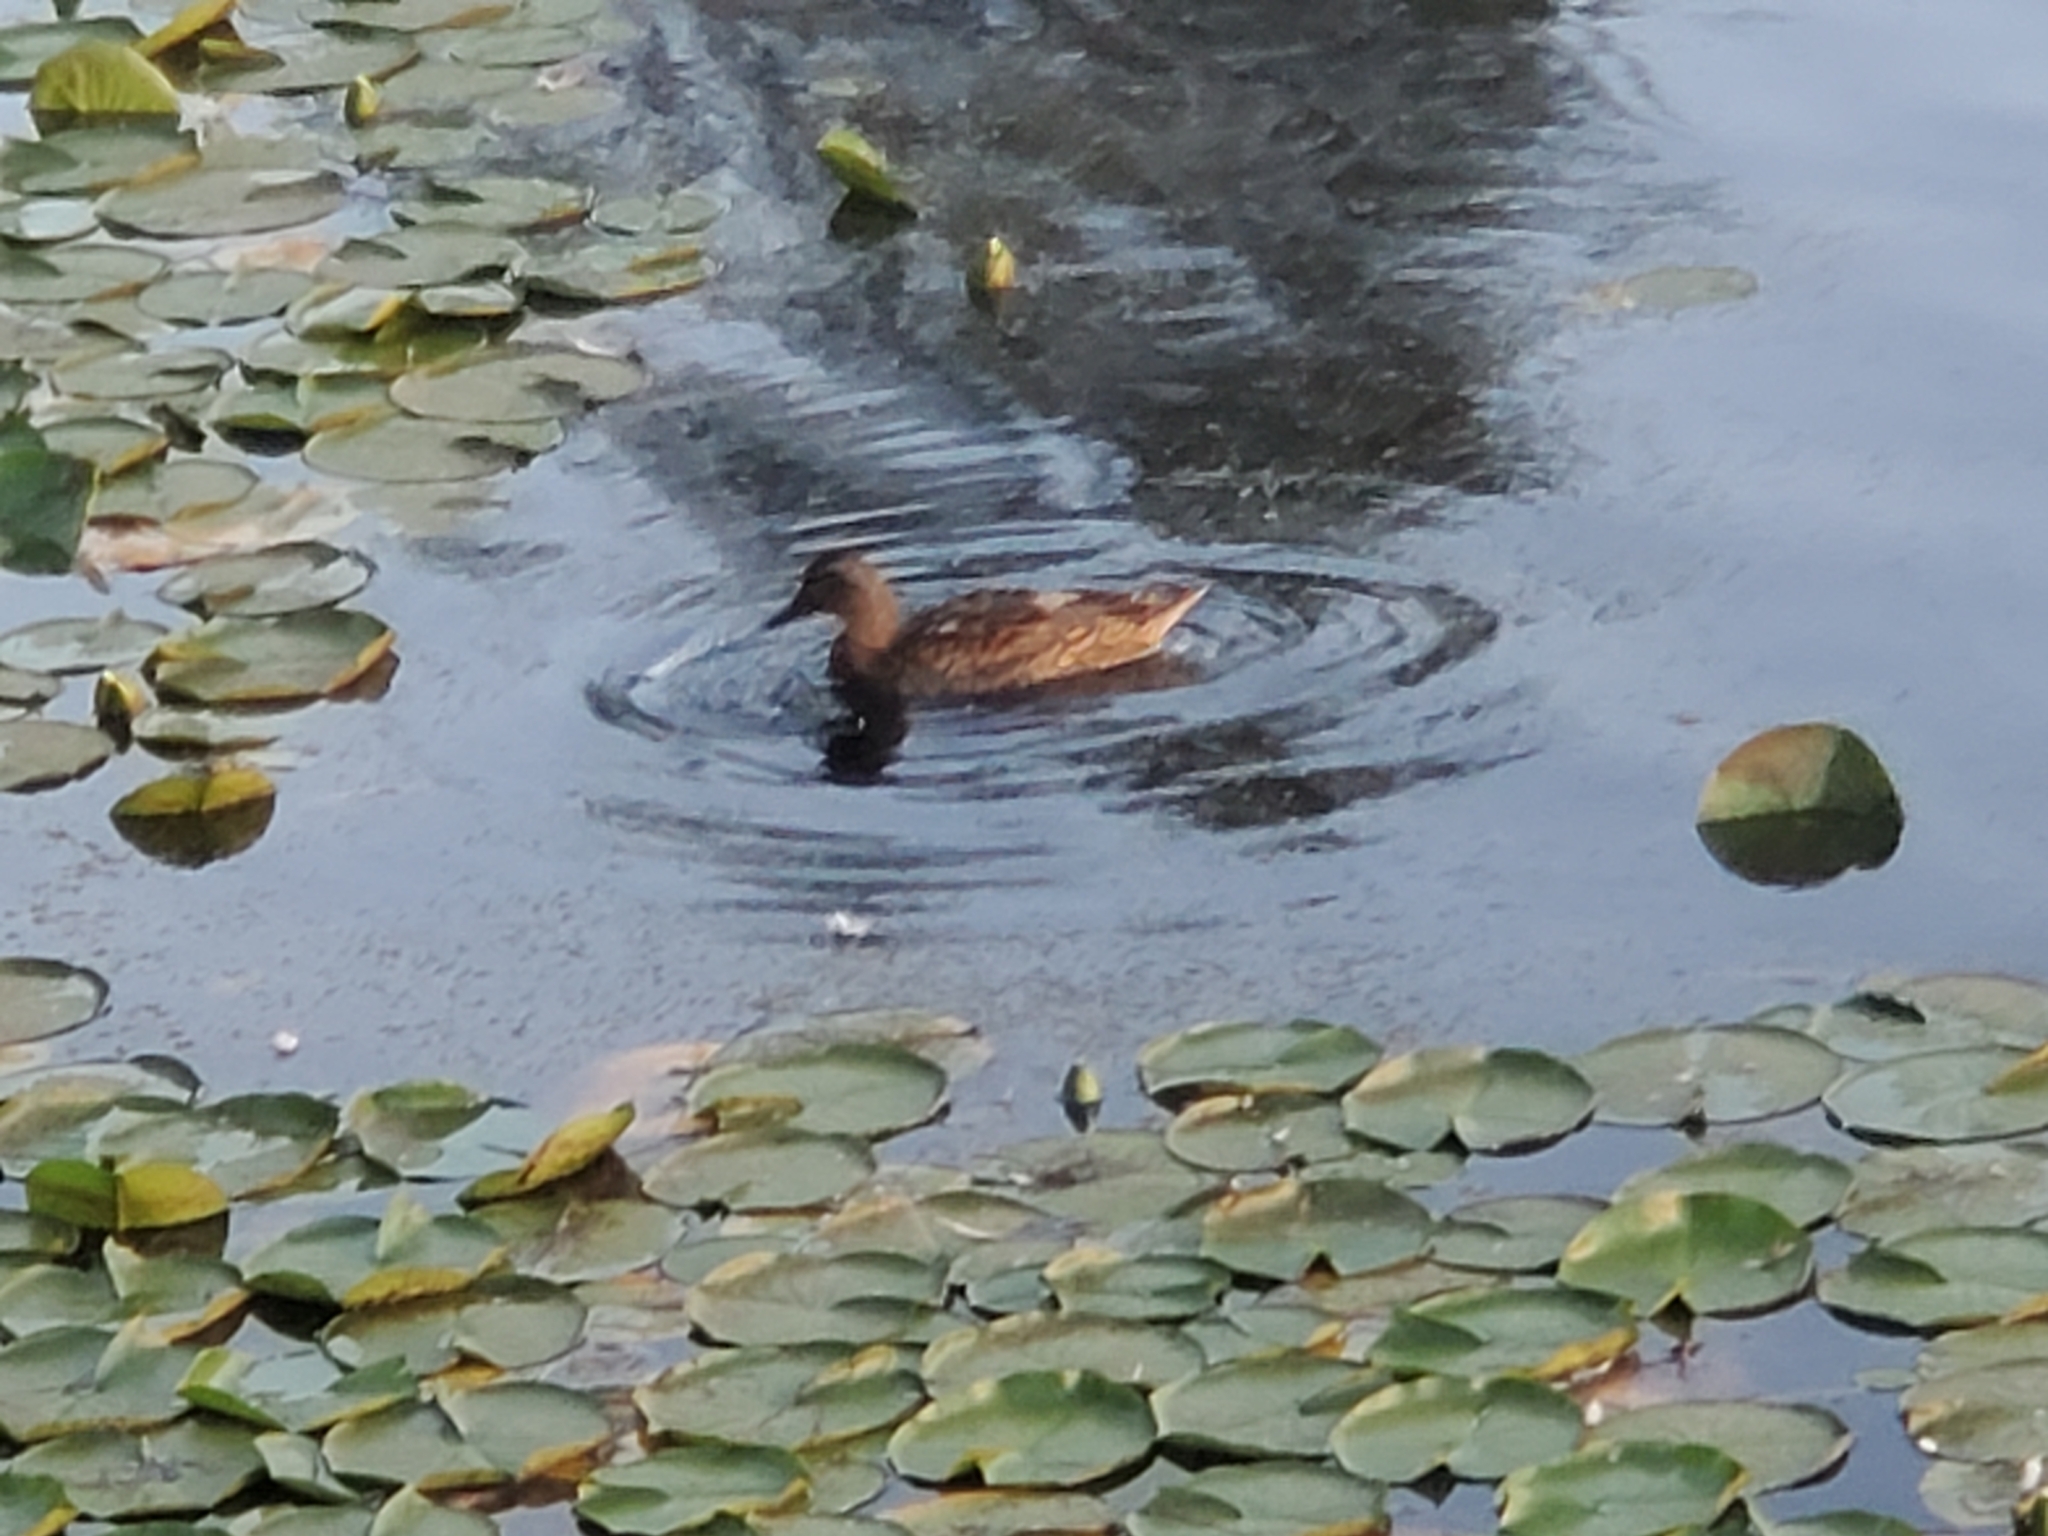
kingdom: Animalia
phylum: Chordata
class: Aves
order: Anseriformes
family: Anatidae
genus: Anas
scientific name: Anas platyrhynchos
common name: Mallard
